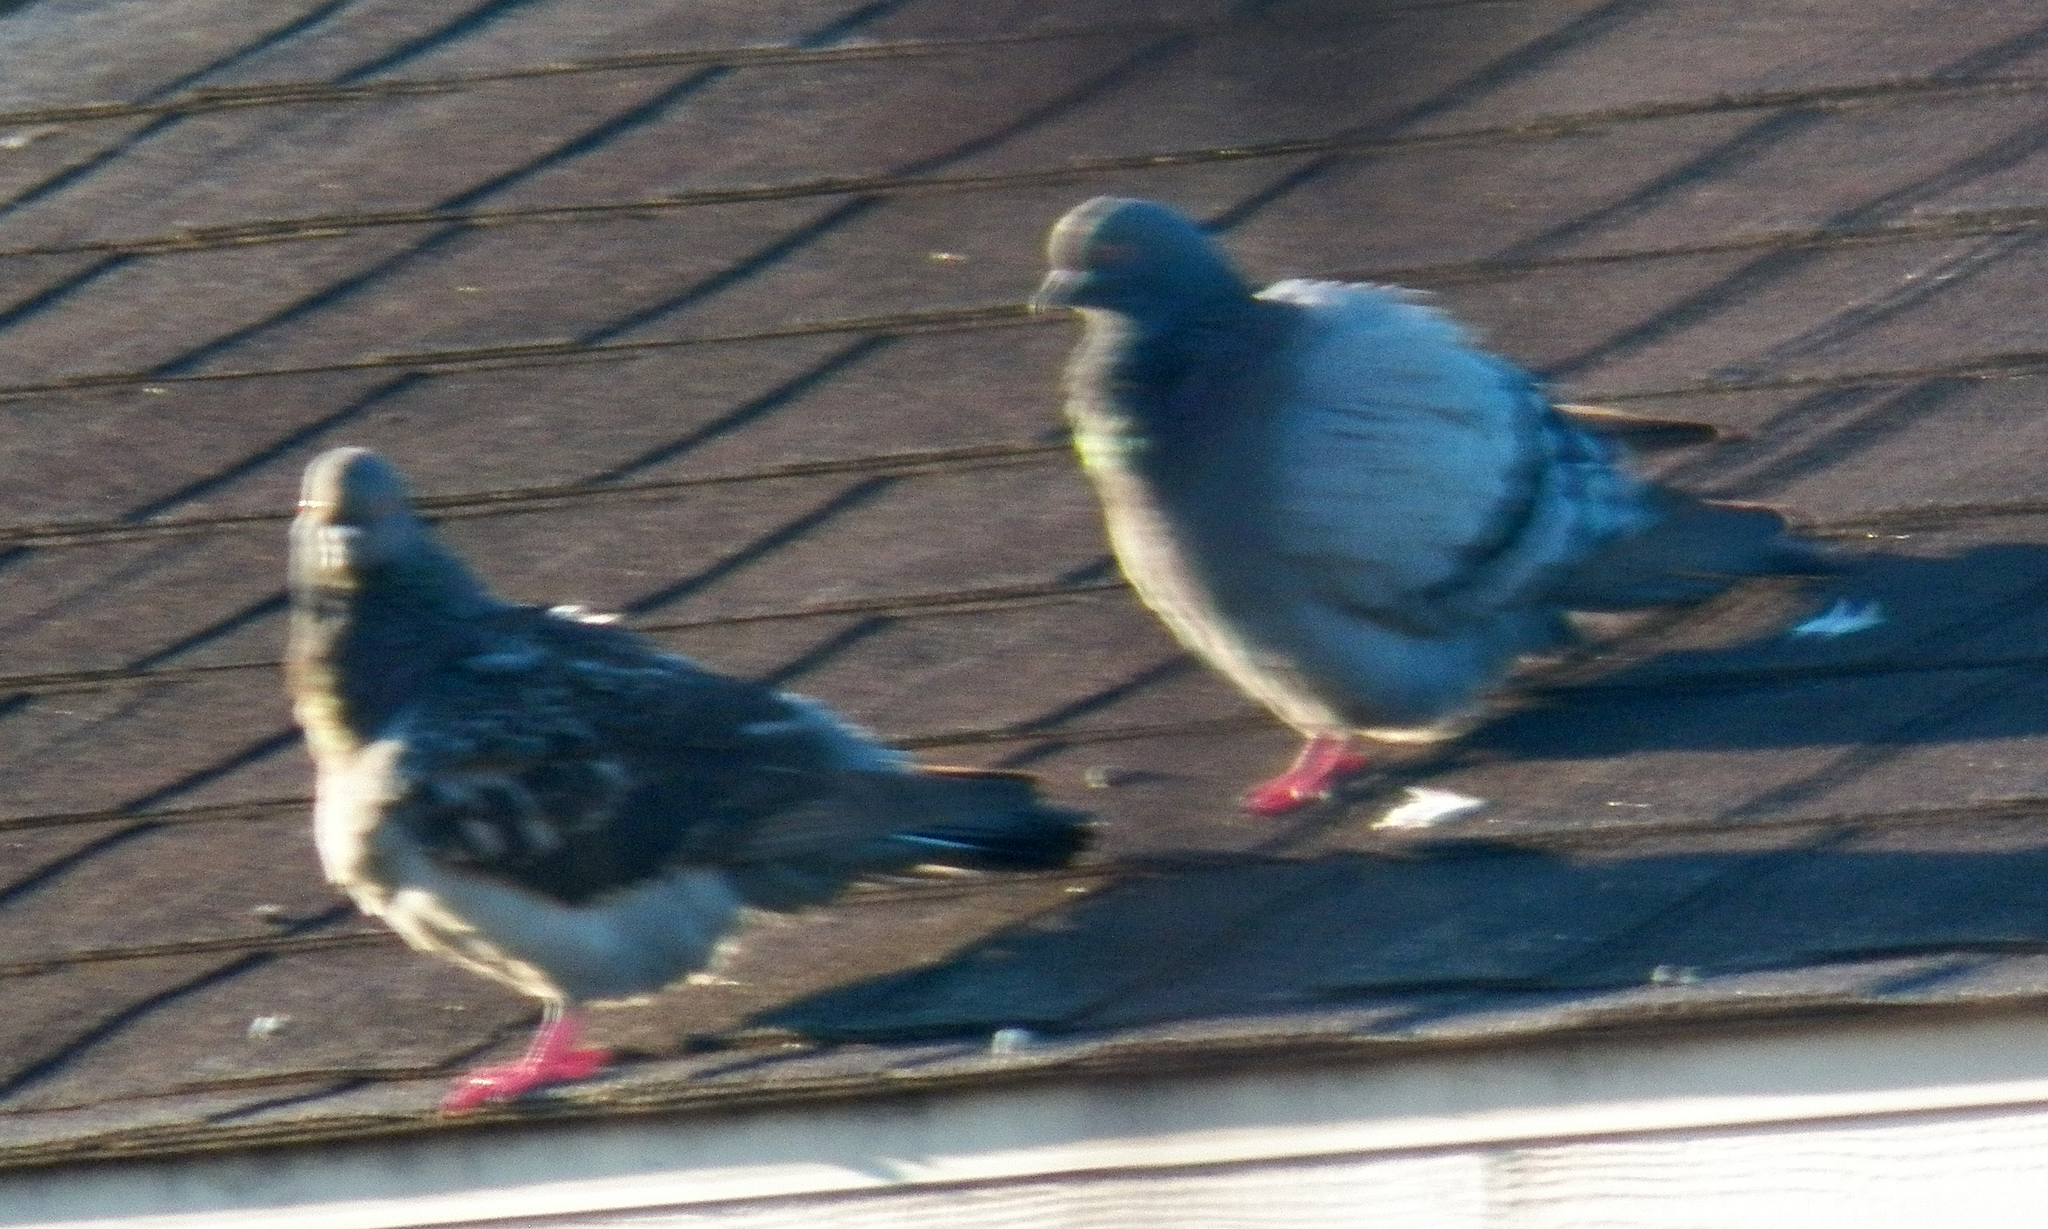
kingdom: Animalia
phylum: Chordata
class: Aves
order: Columbiformes
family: Columbidae
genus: Columba
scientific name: Columba livia
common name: Rock pigeon
